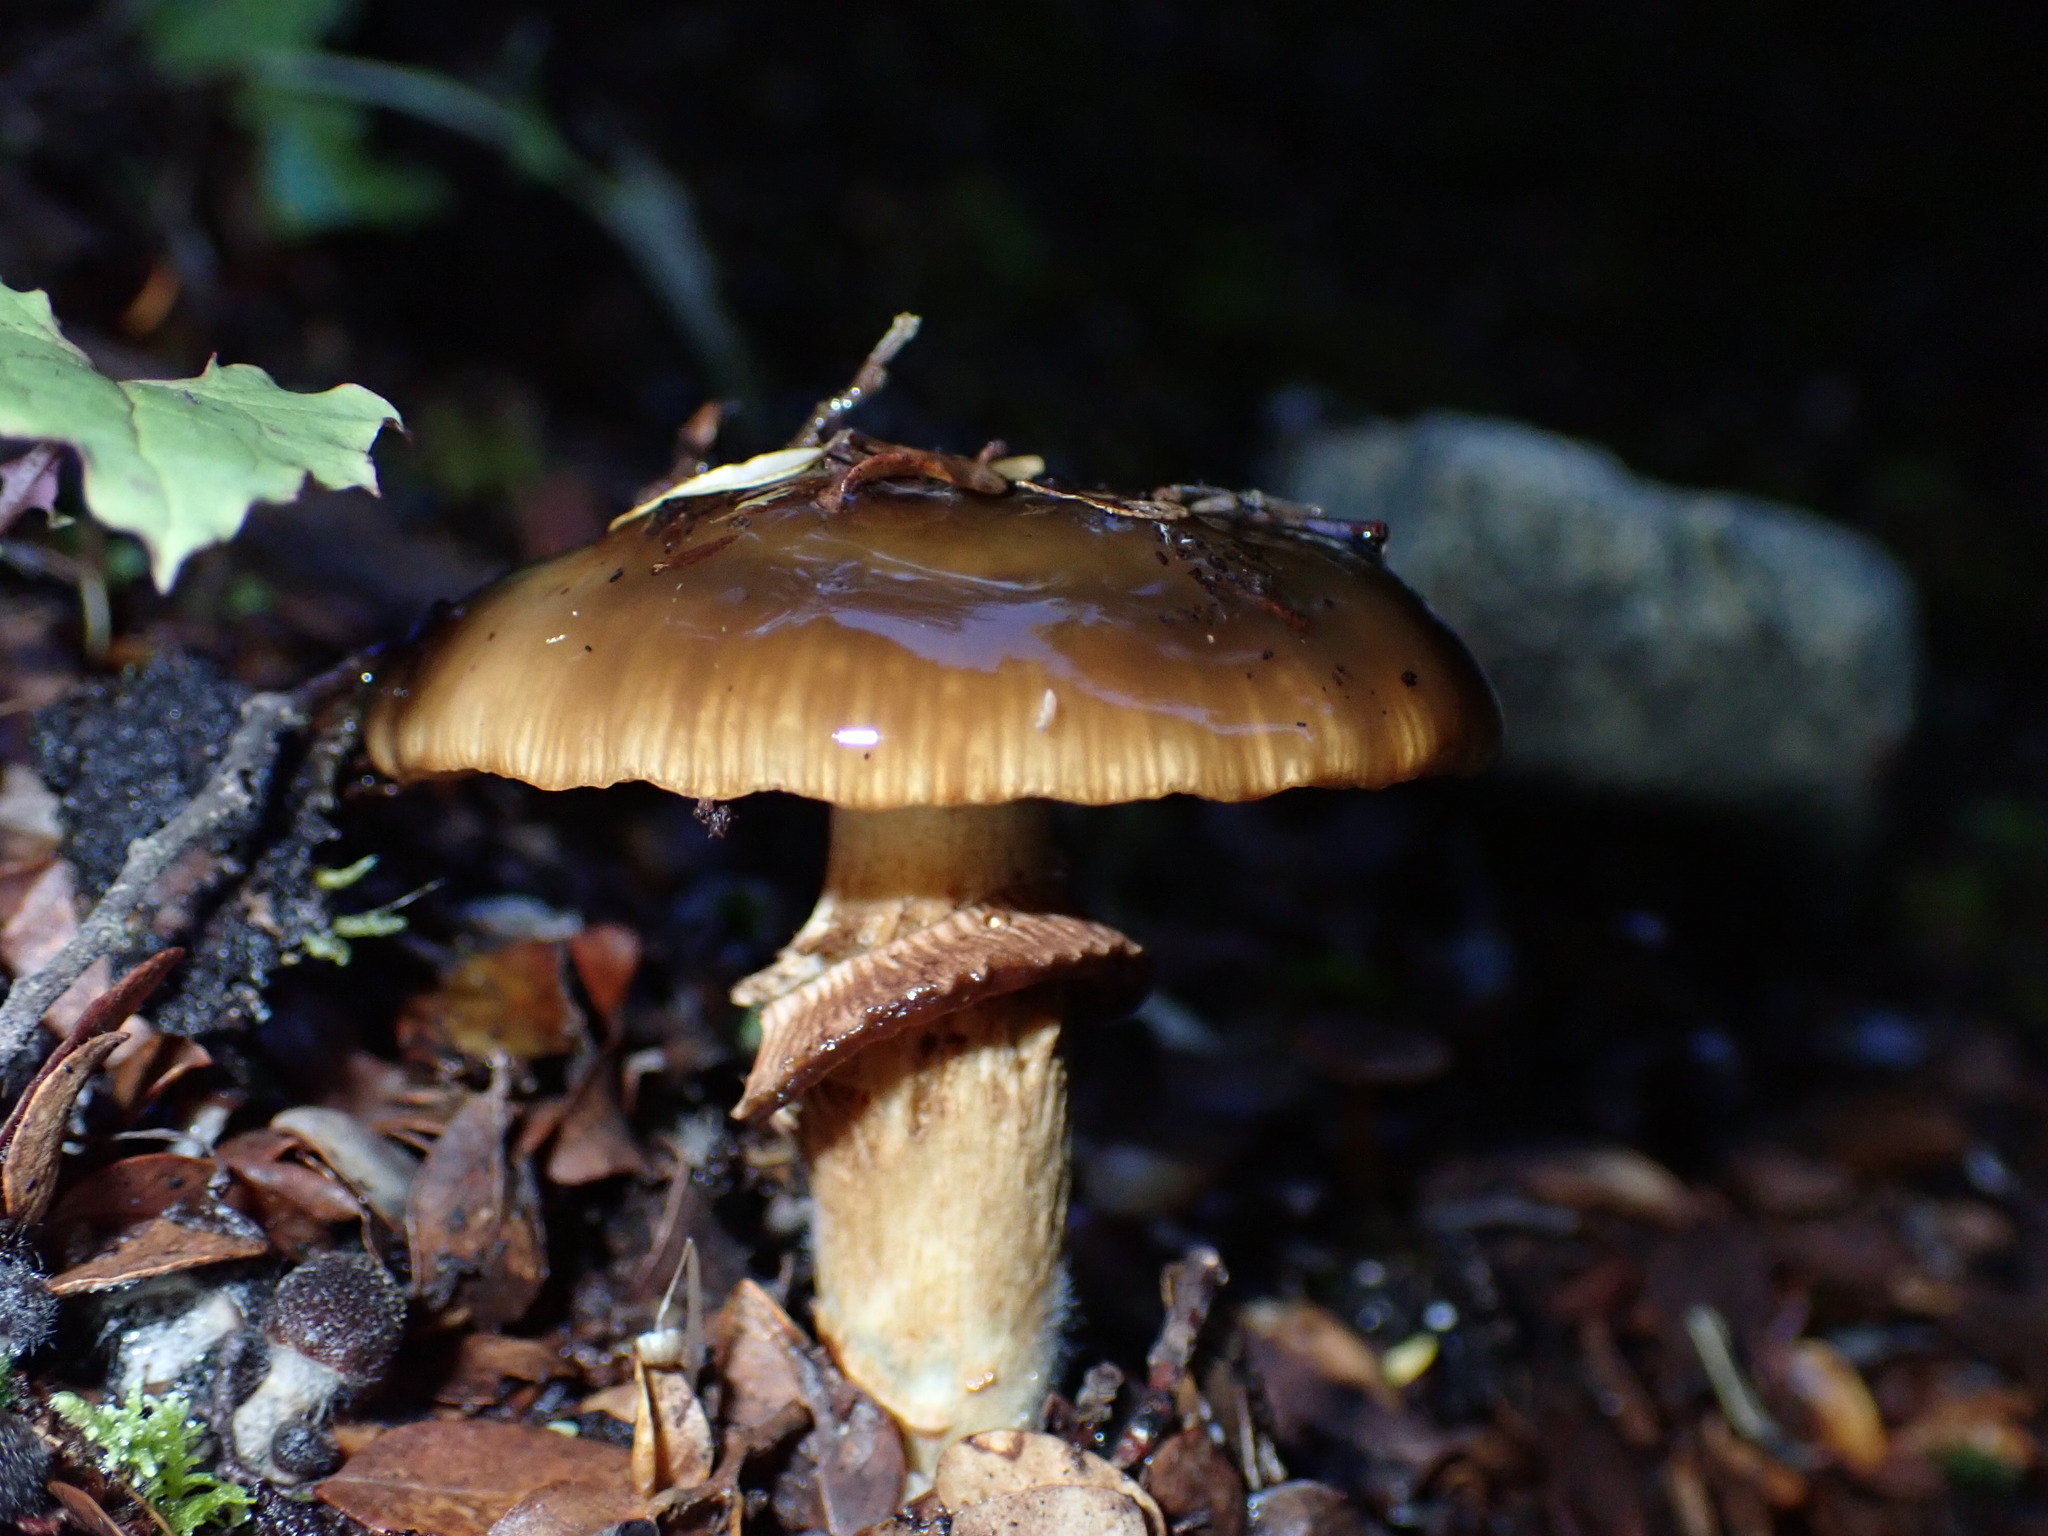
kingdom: Fungi
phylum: Basidiomycota
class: Agaricomycetes
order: Agaricales
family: Cortinariaceae
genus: Cortinarius
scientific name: Cortinarius majestaticus
